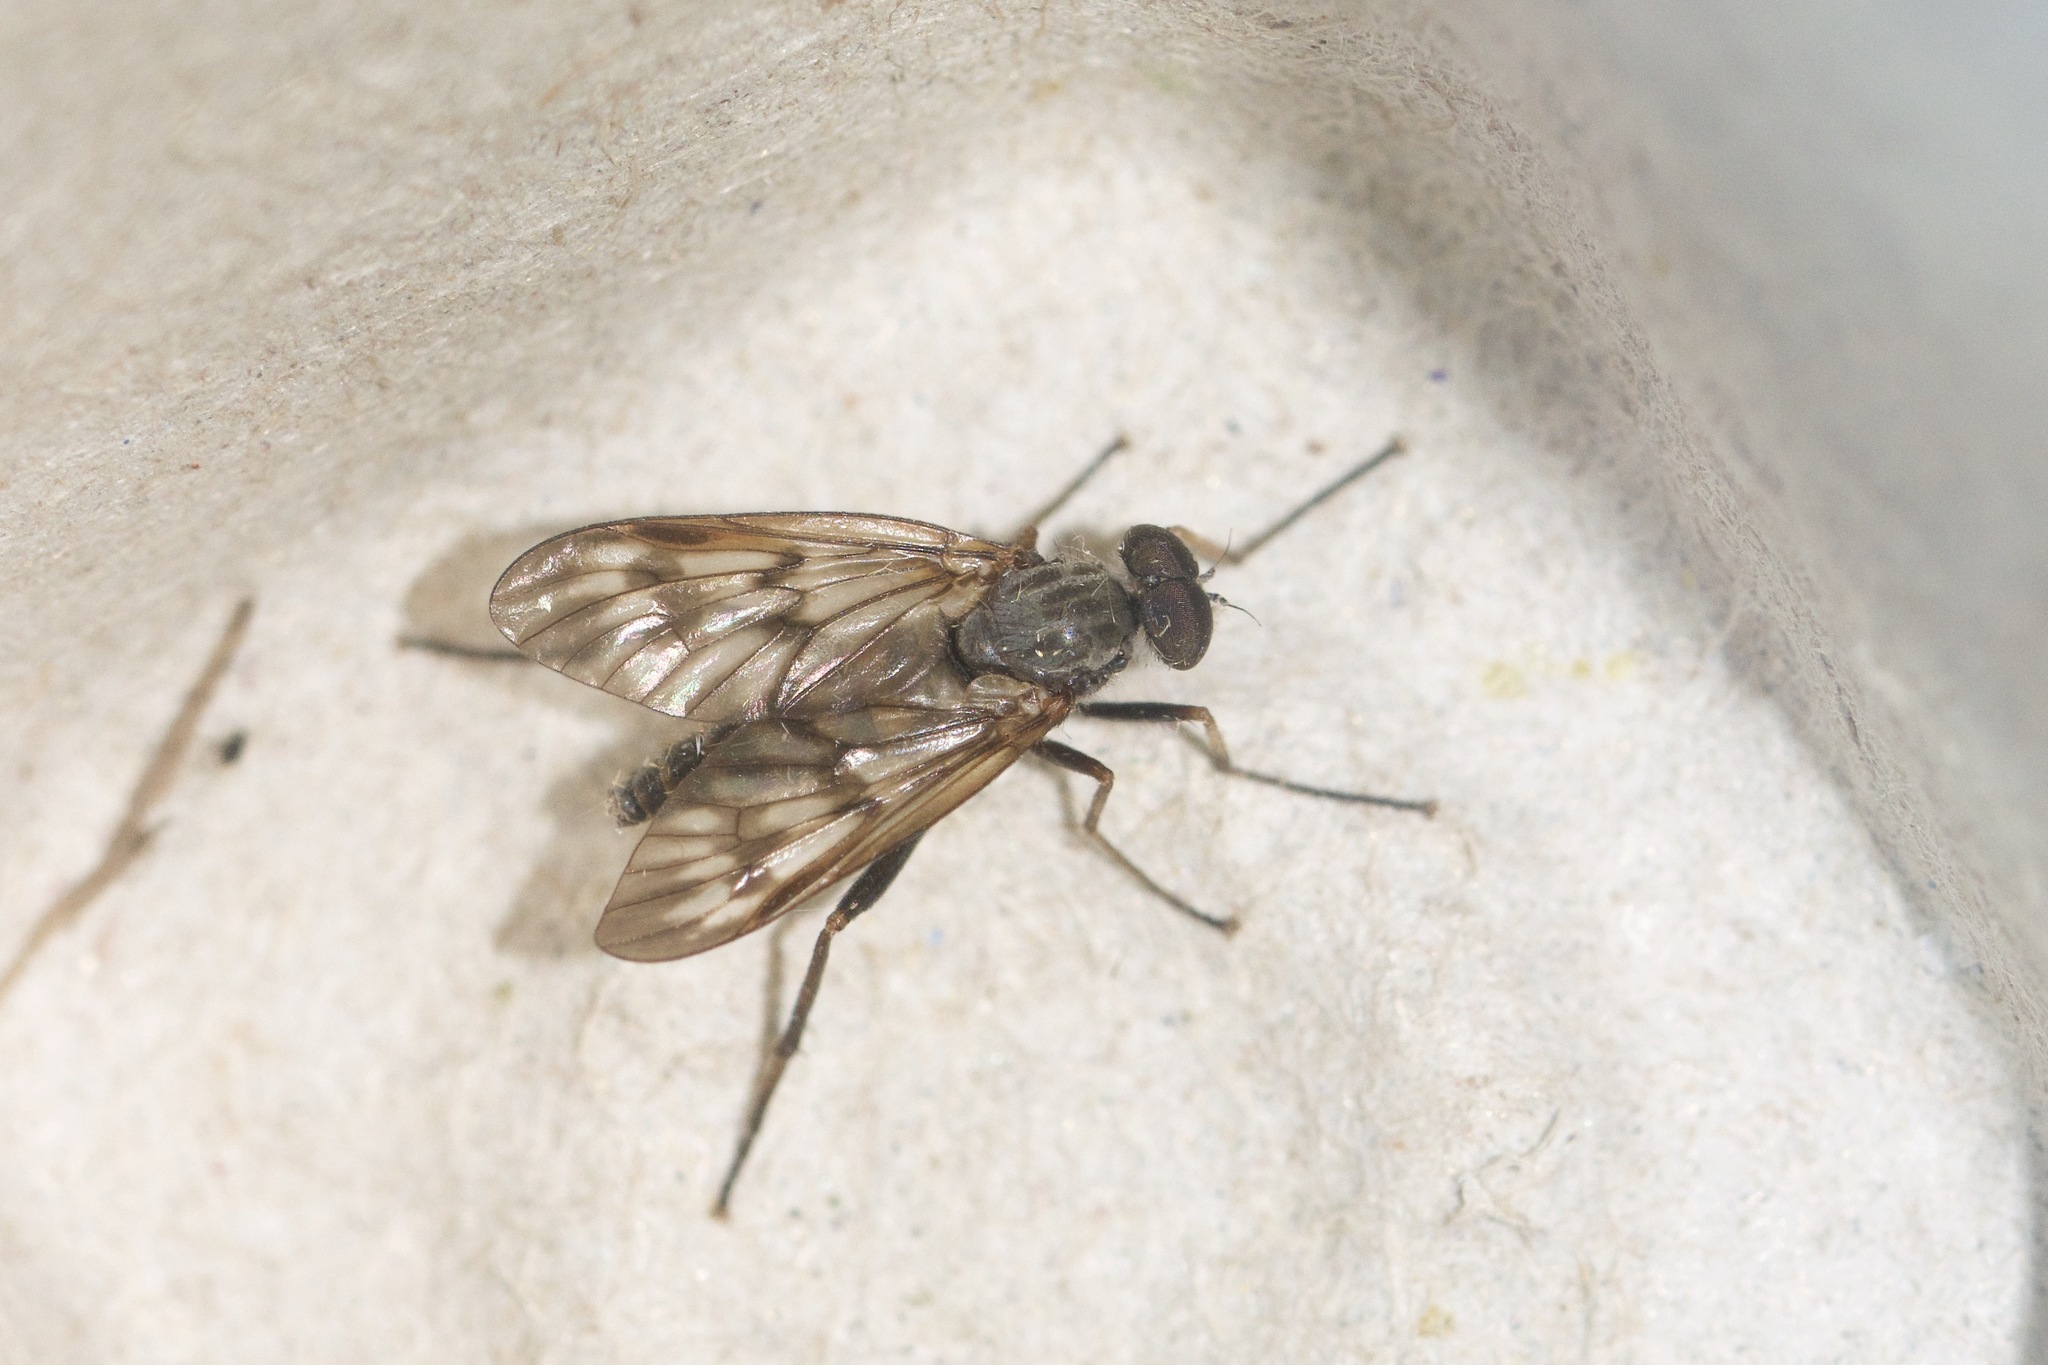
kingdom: Animalia
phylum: Arthropoda
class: Insecta
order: Diptera
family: Rhagionidae
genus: Rhagio
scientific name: Rhagio mystaceus
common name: Common snipe fly
